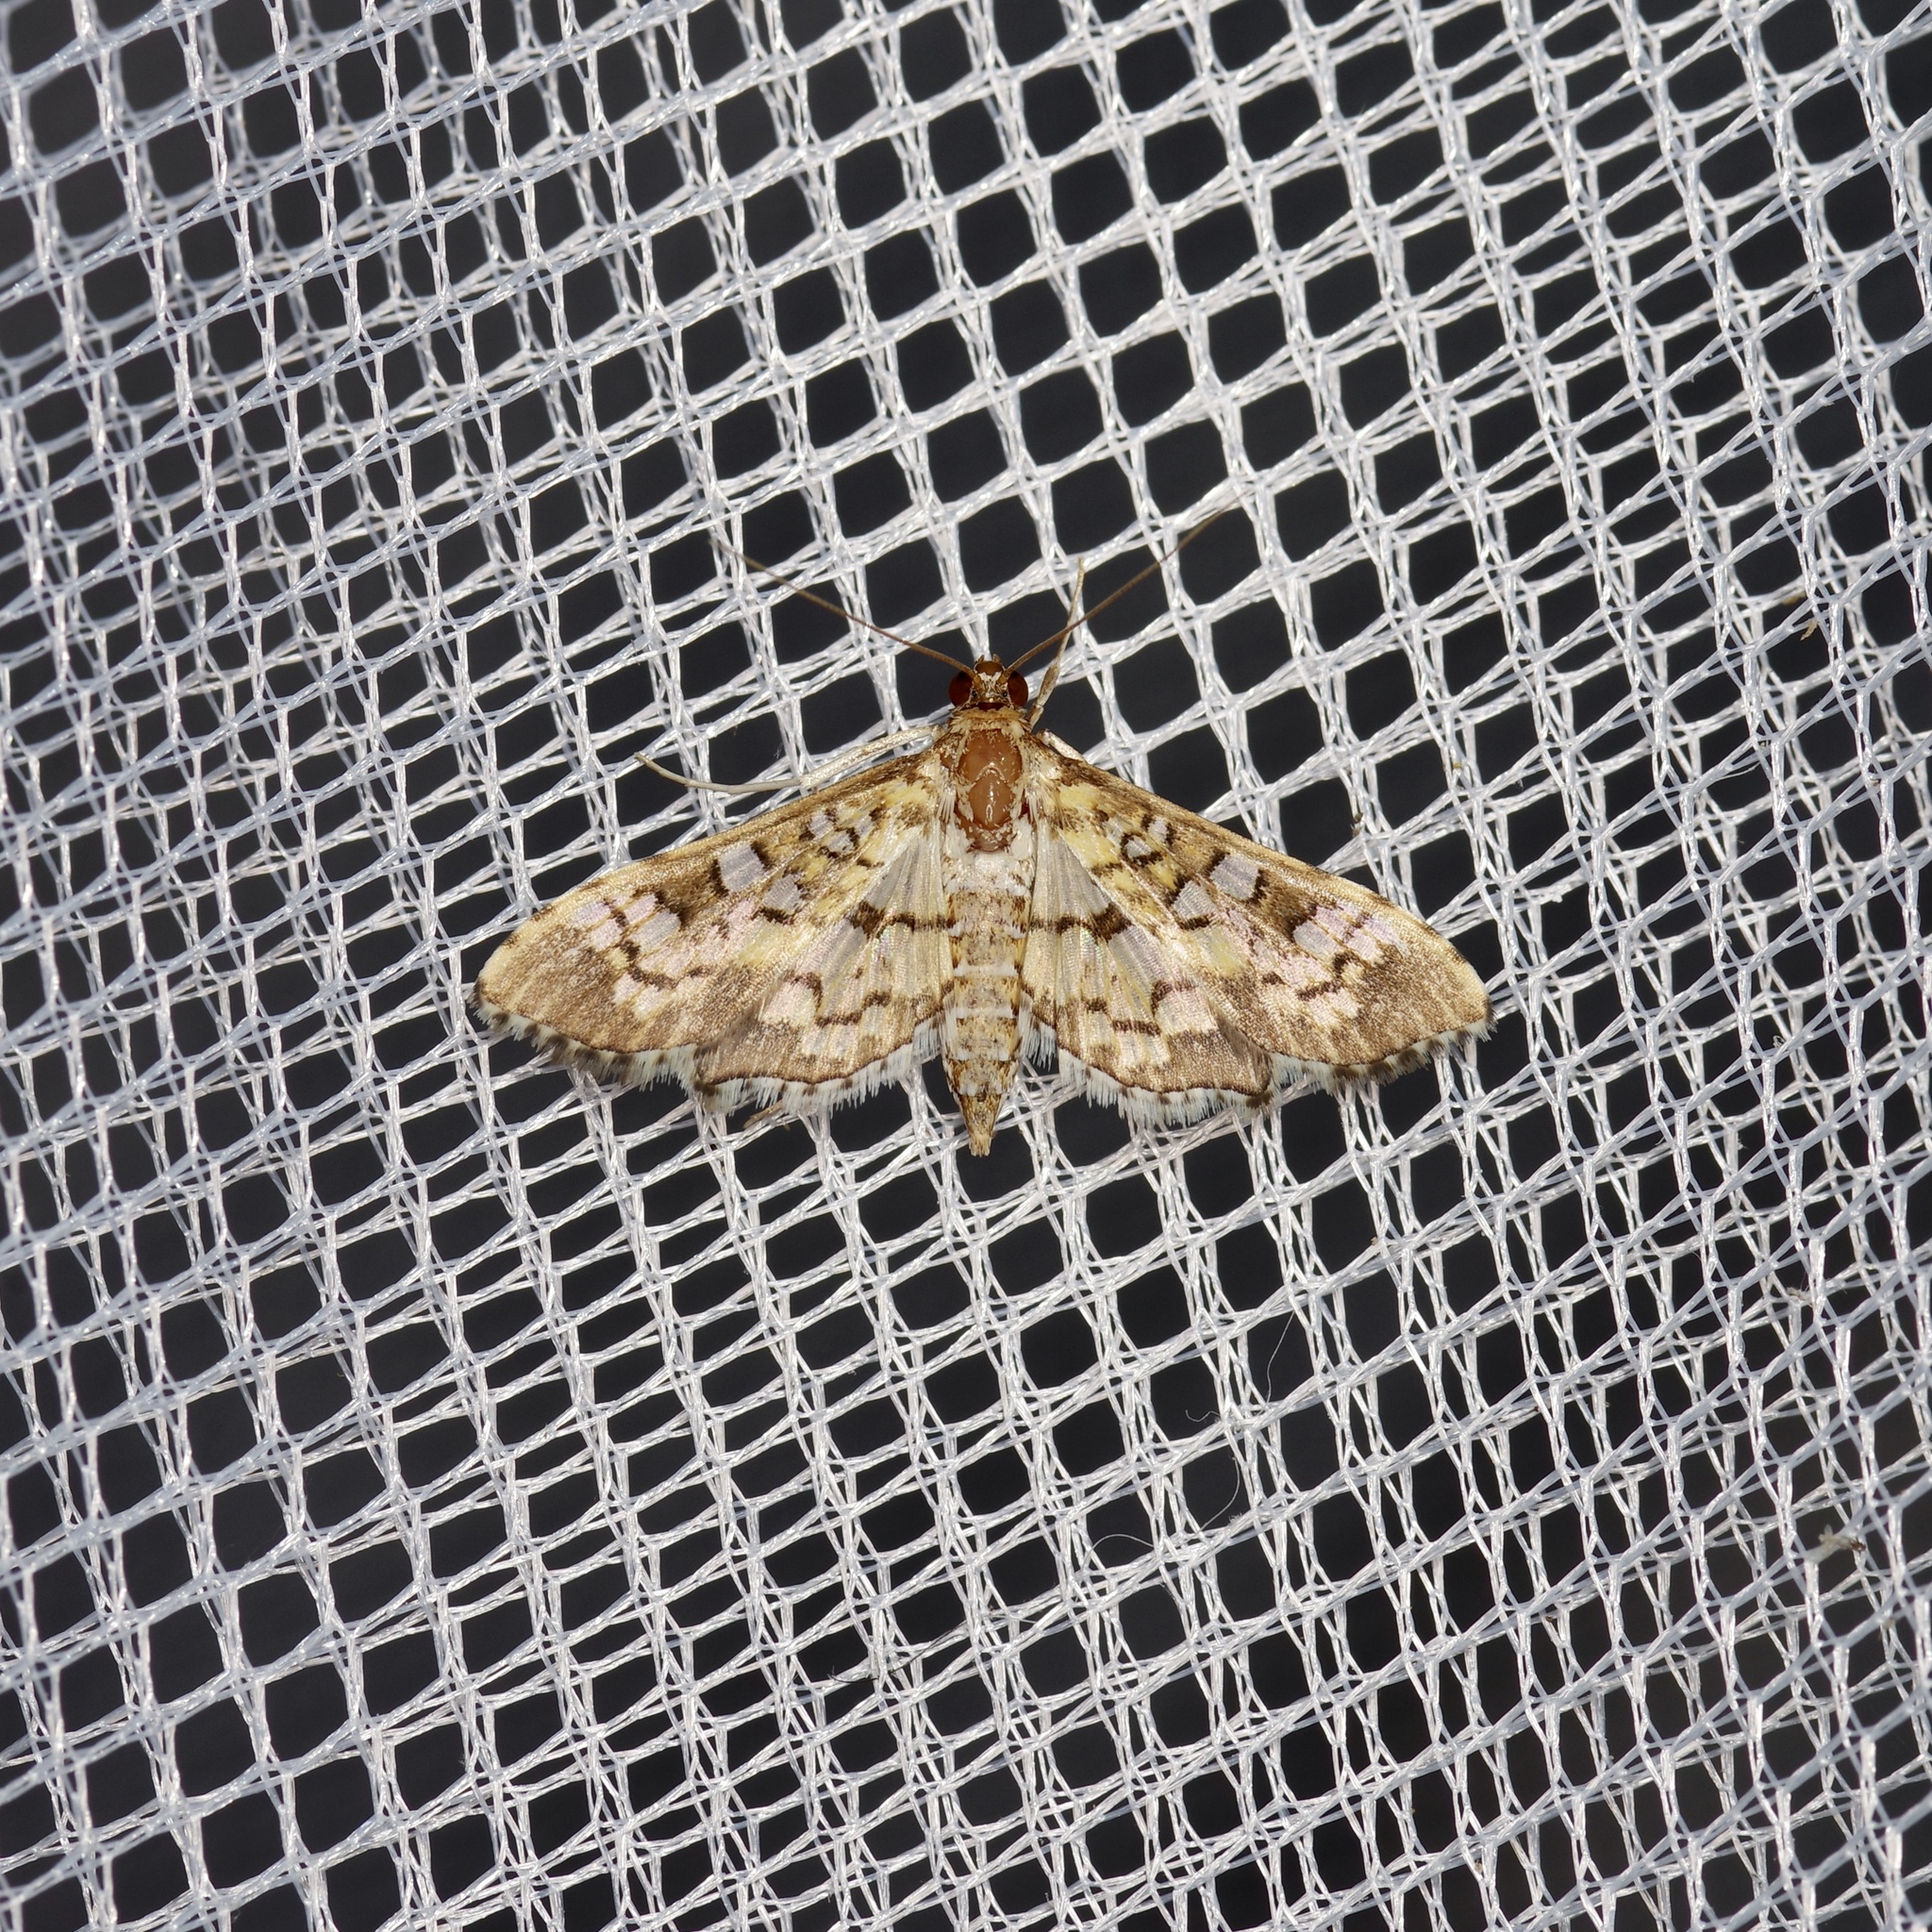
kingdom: Animalia
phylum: Arthropoda
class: Insecta
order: Lepidoptera
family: Crambidae
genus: Samea
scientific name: Samea ecclesialis
